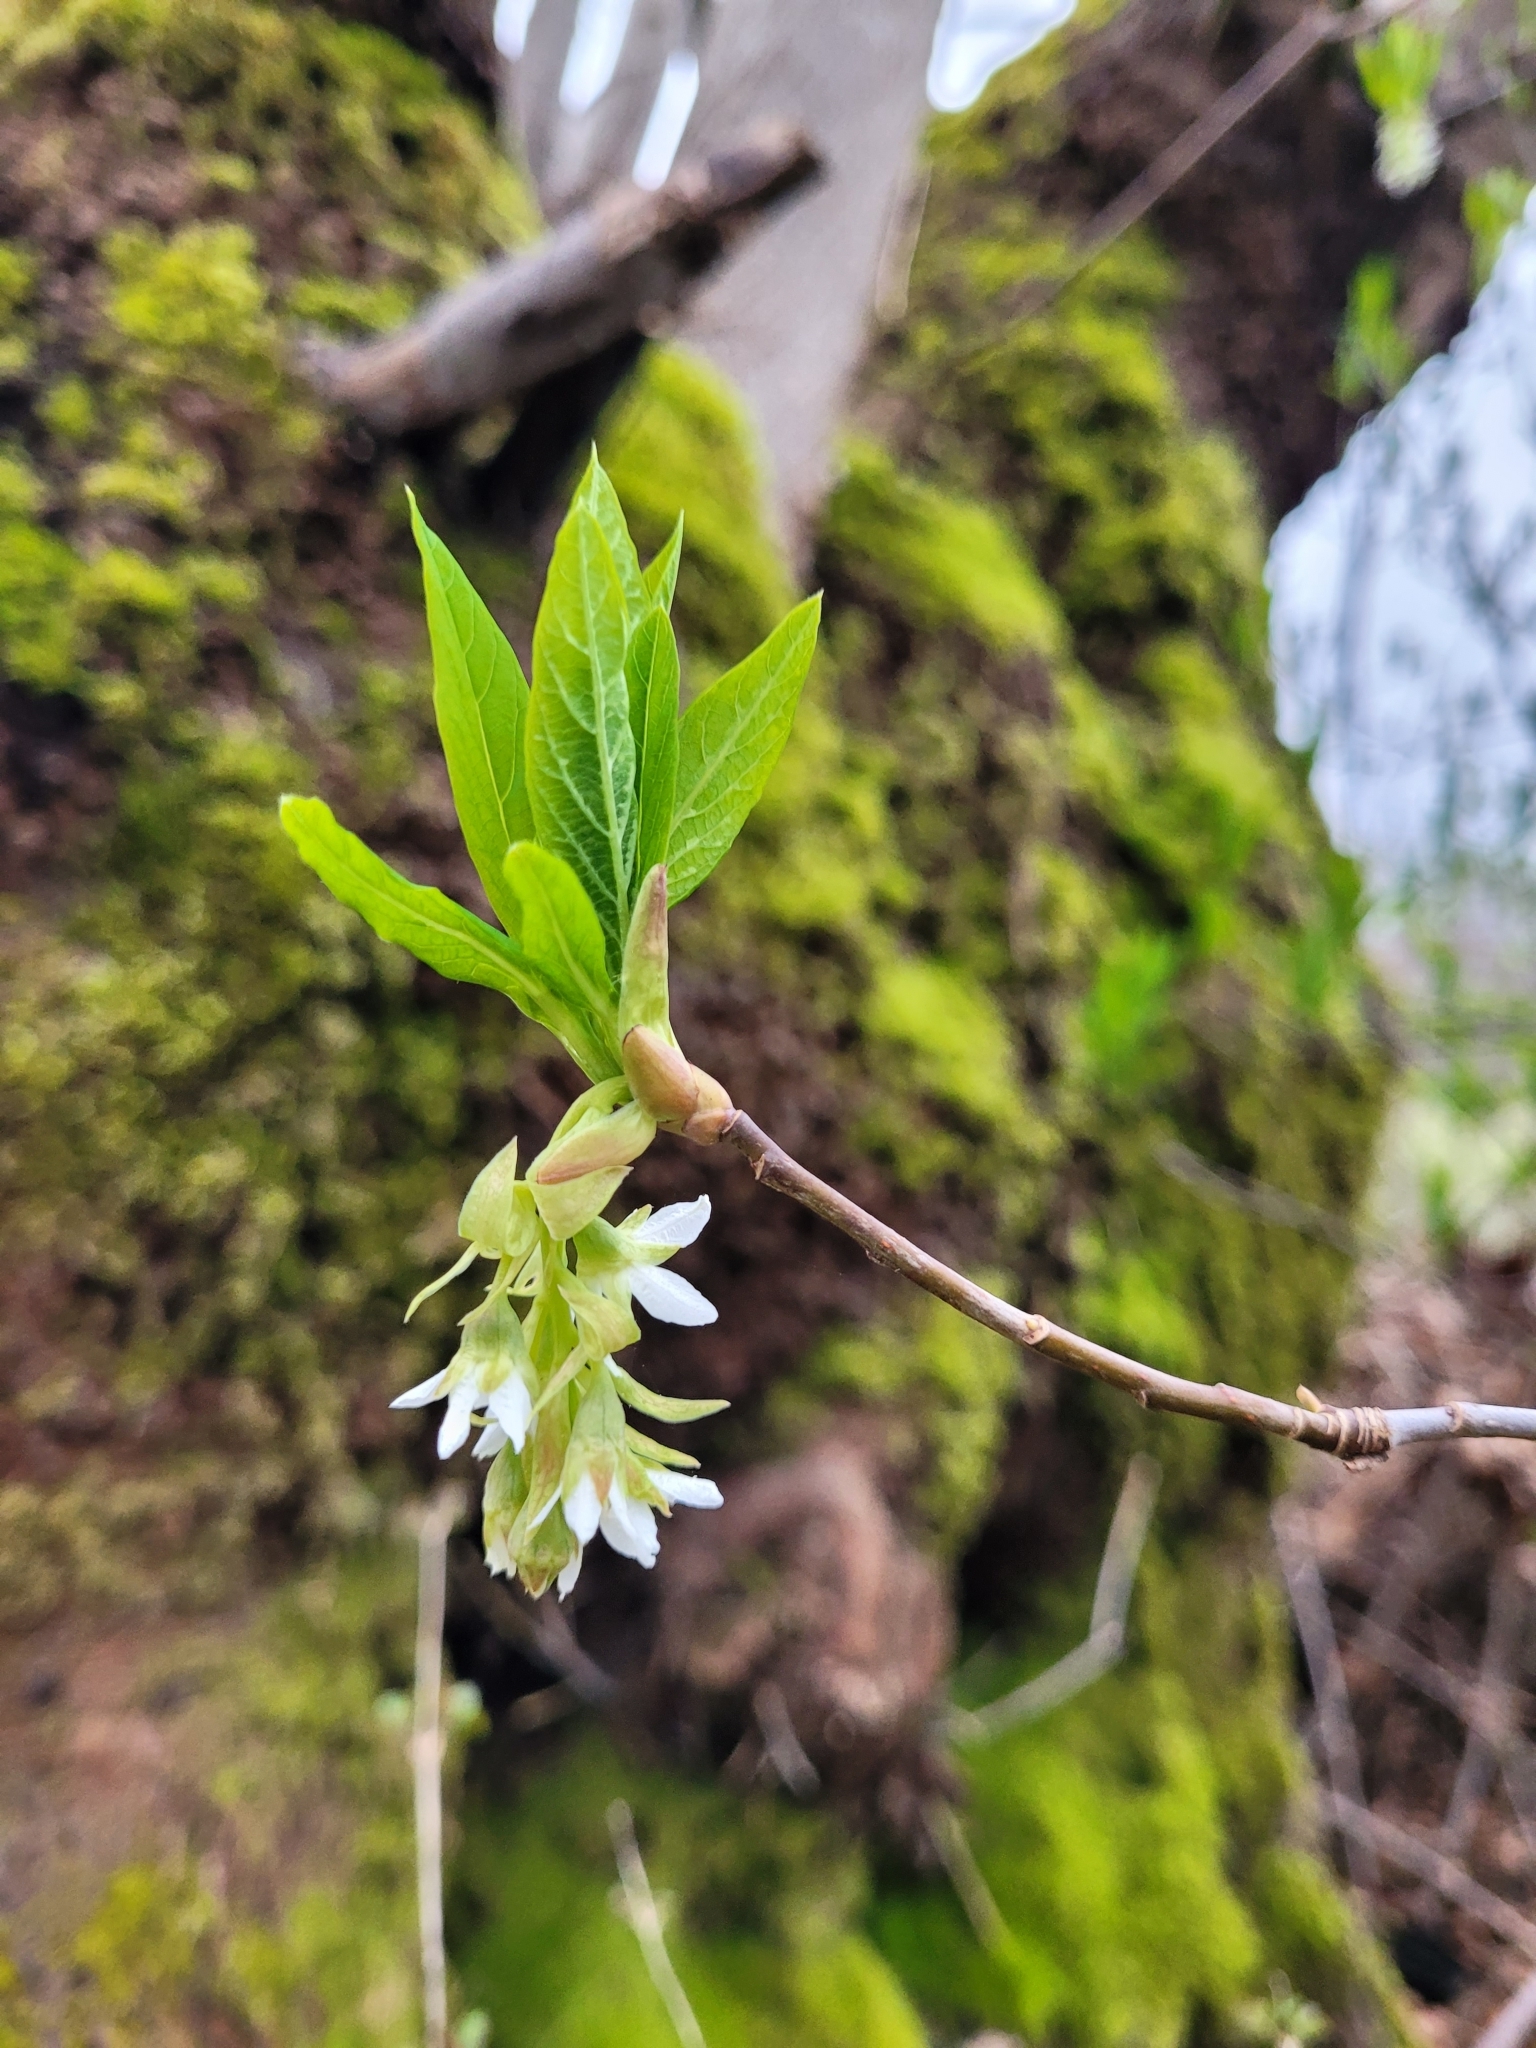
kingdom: Plantae
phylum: Tracheophyta
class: Magnoliopsida
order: Rosales
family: Rosaceae
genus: Oemleria
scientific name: Oemleria cerasiformis
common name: Osoberry
